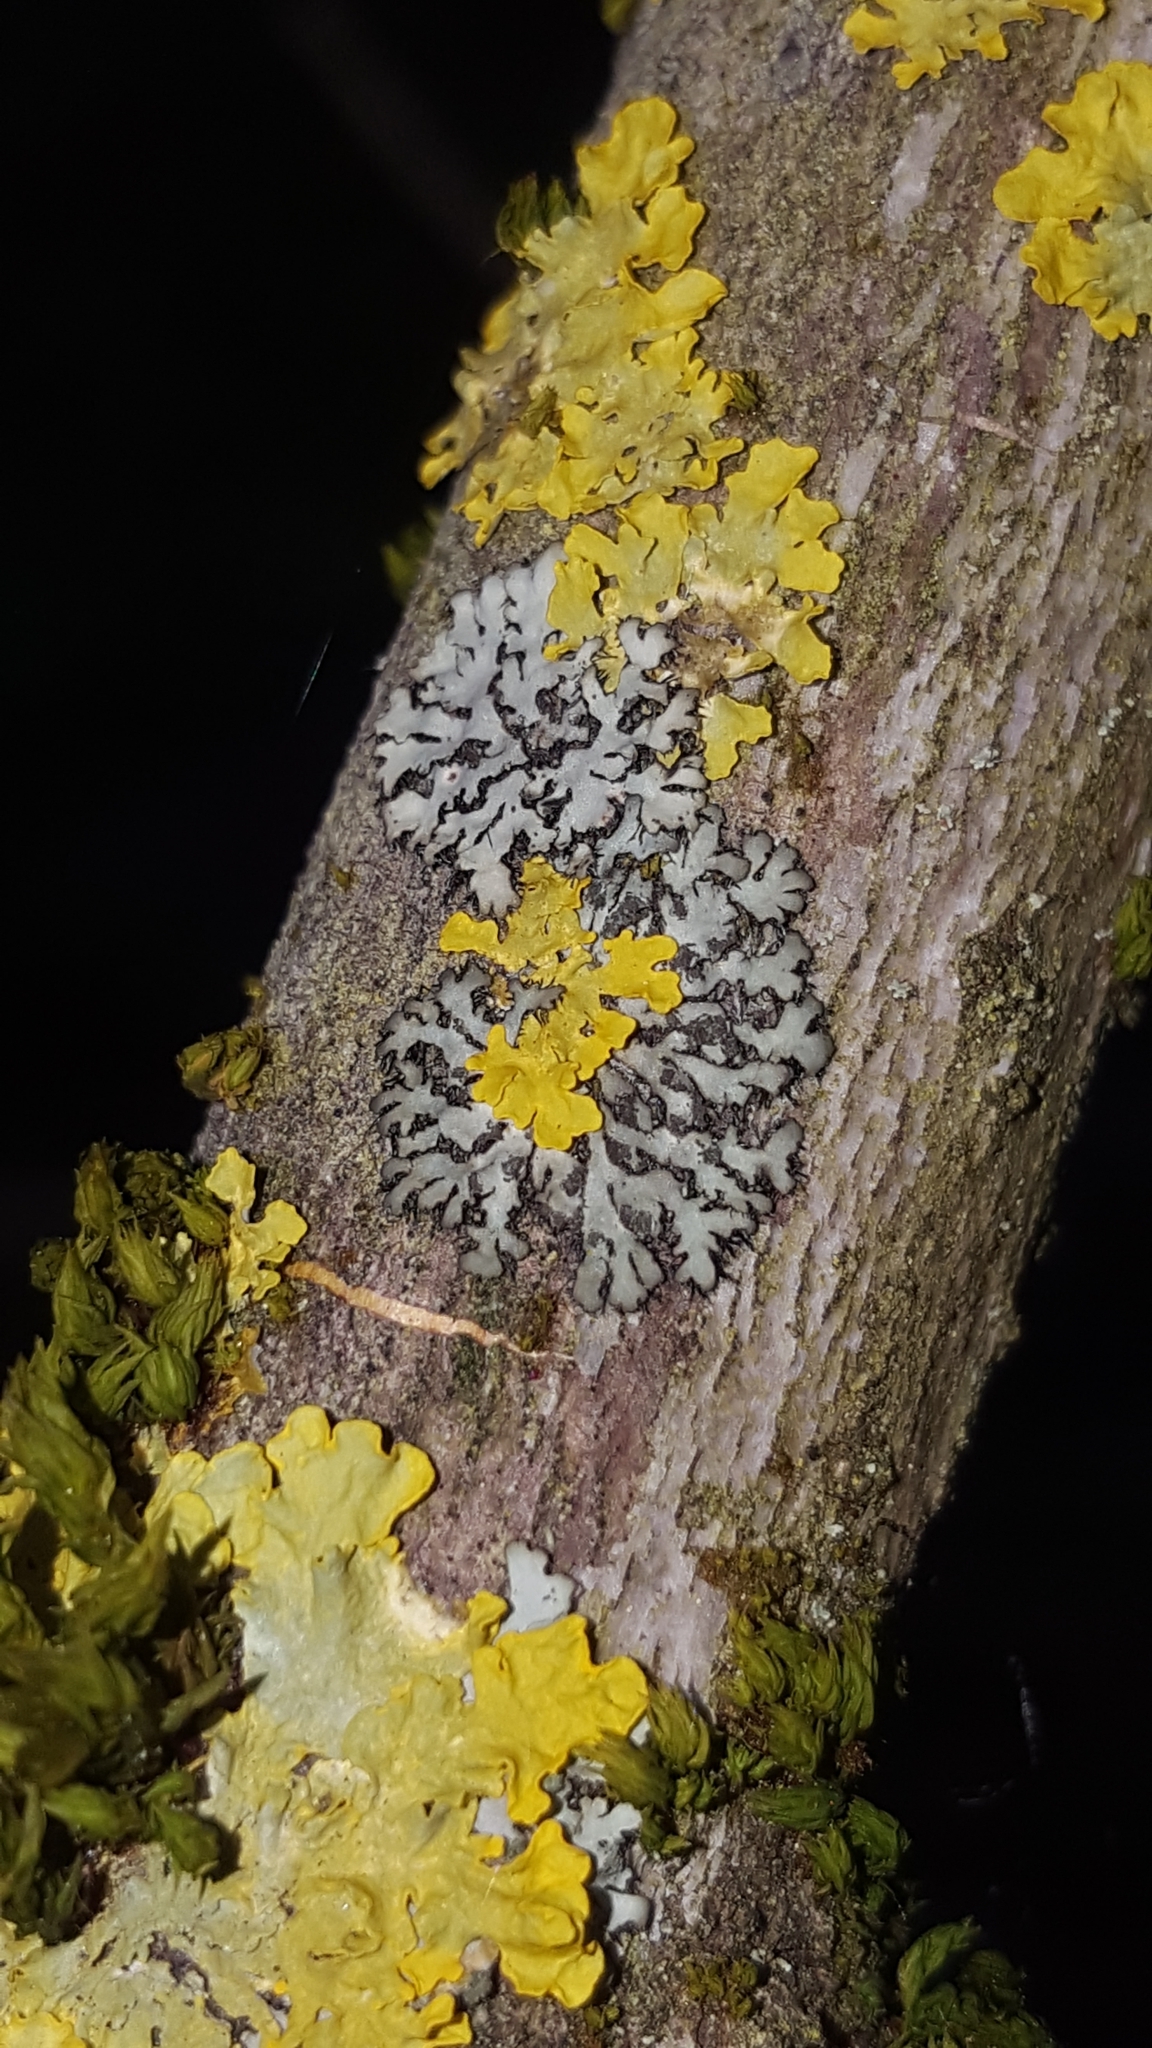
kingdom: Fungi
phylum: Ascomycota
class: Lecanoromycetes
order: Teloschistales
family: Teloschistaceae
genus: Xanthoria
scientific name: Xanthoria parietina
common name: Common orange lichen
